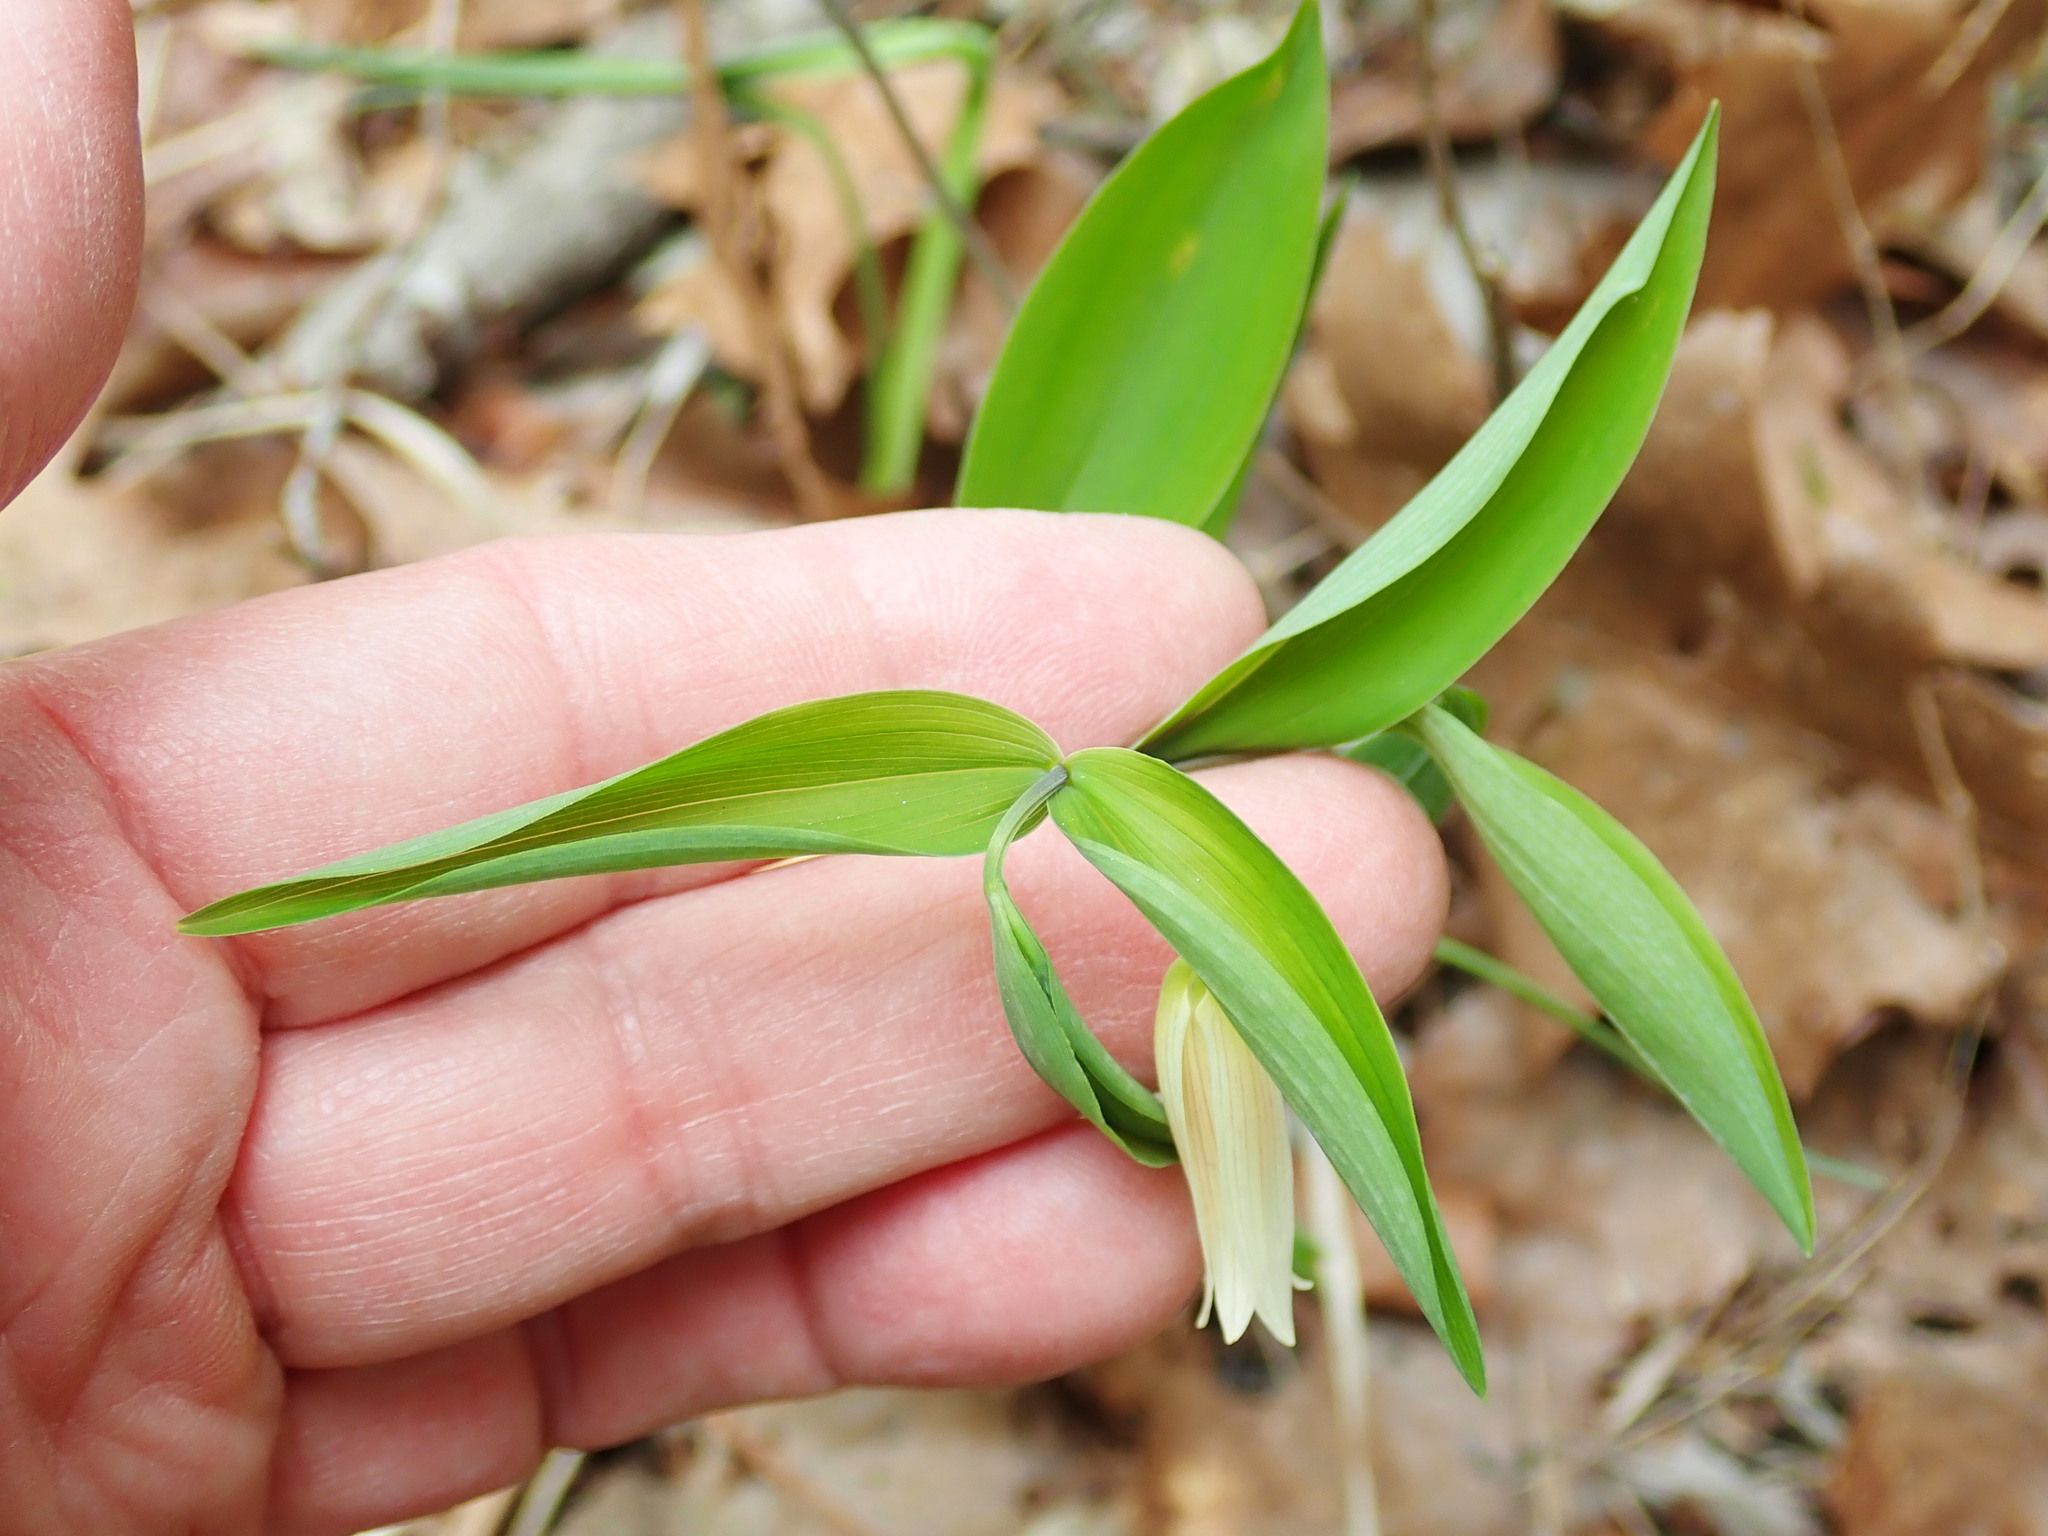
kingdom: Plantae
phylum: Tracheophyta
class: Liliopsida
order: Liliales
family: Colchicaceae
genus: Uvularia
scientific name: Uvularia sessilifolia
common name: Straw-lily
